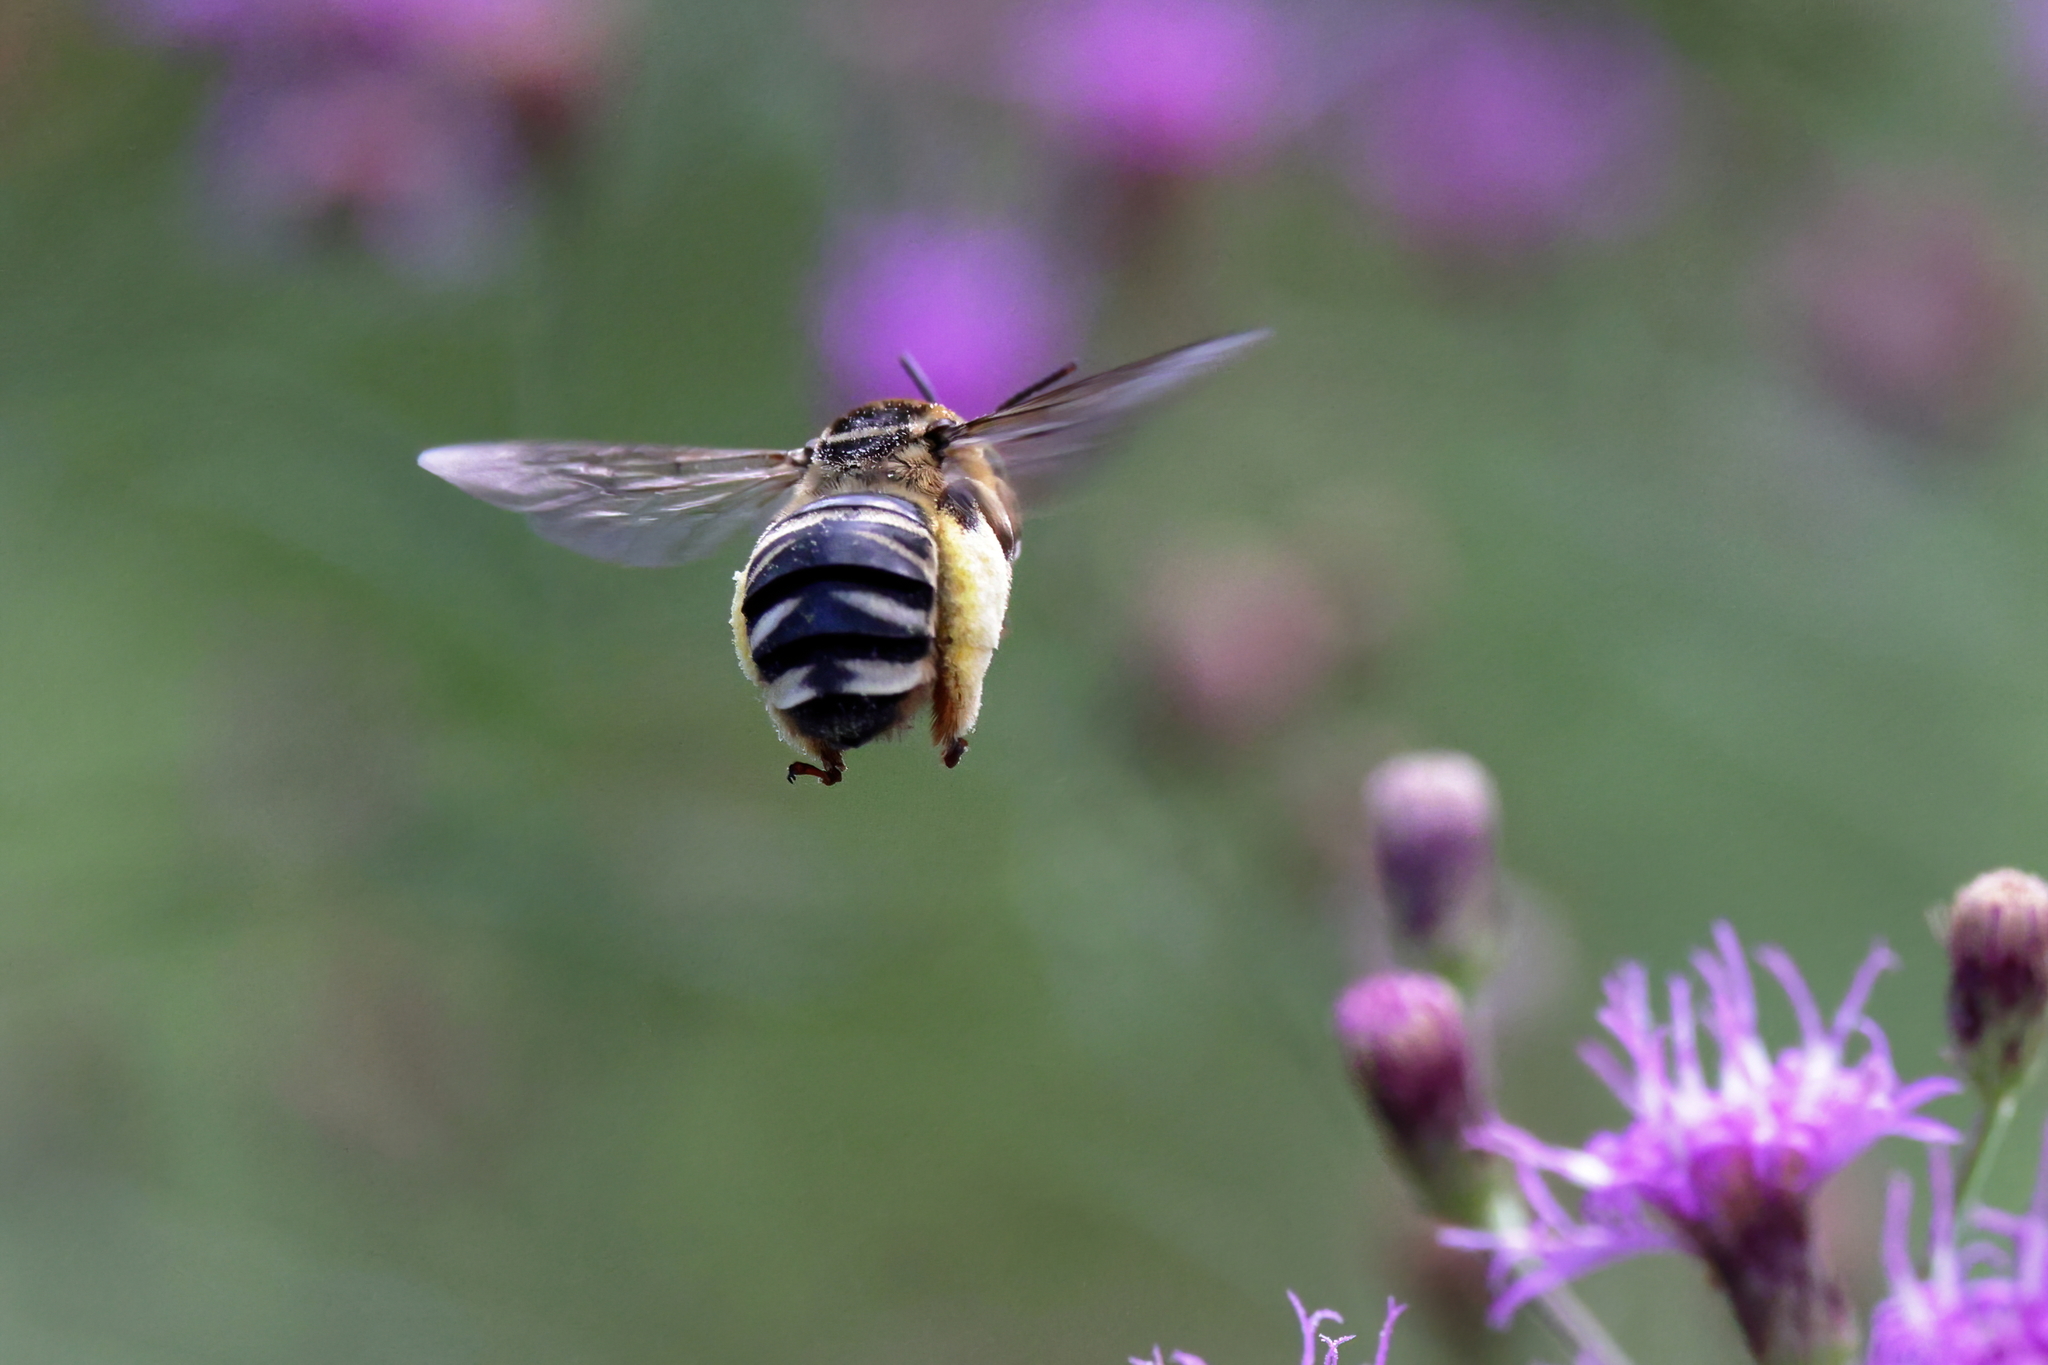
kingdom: Animalia
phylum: Arthropoda
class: Insecta
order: Hymenoptera
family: Apidae
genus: Svastra
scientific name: Svastra aegis
